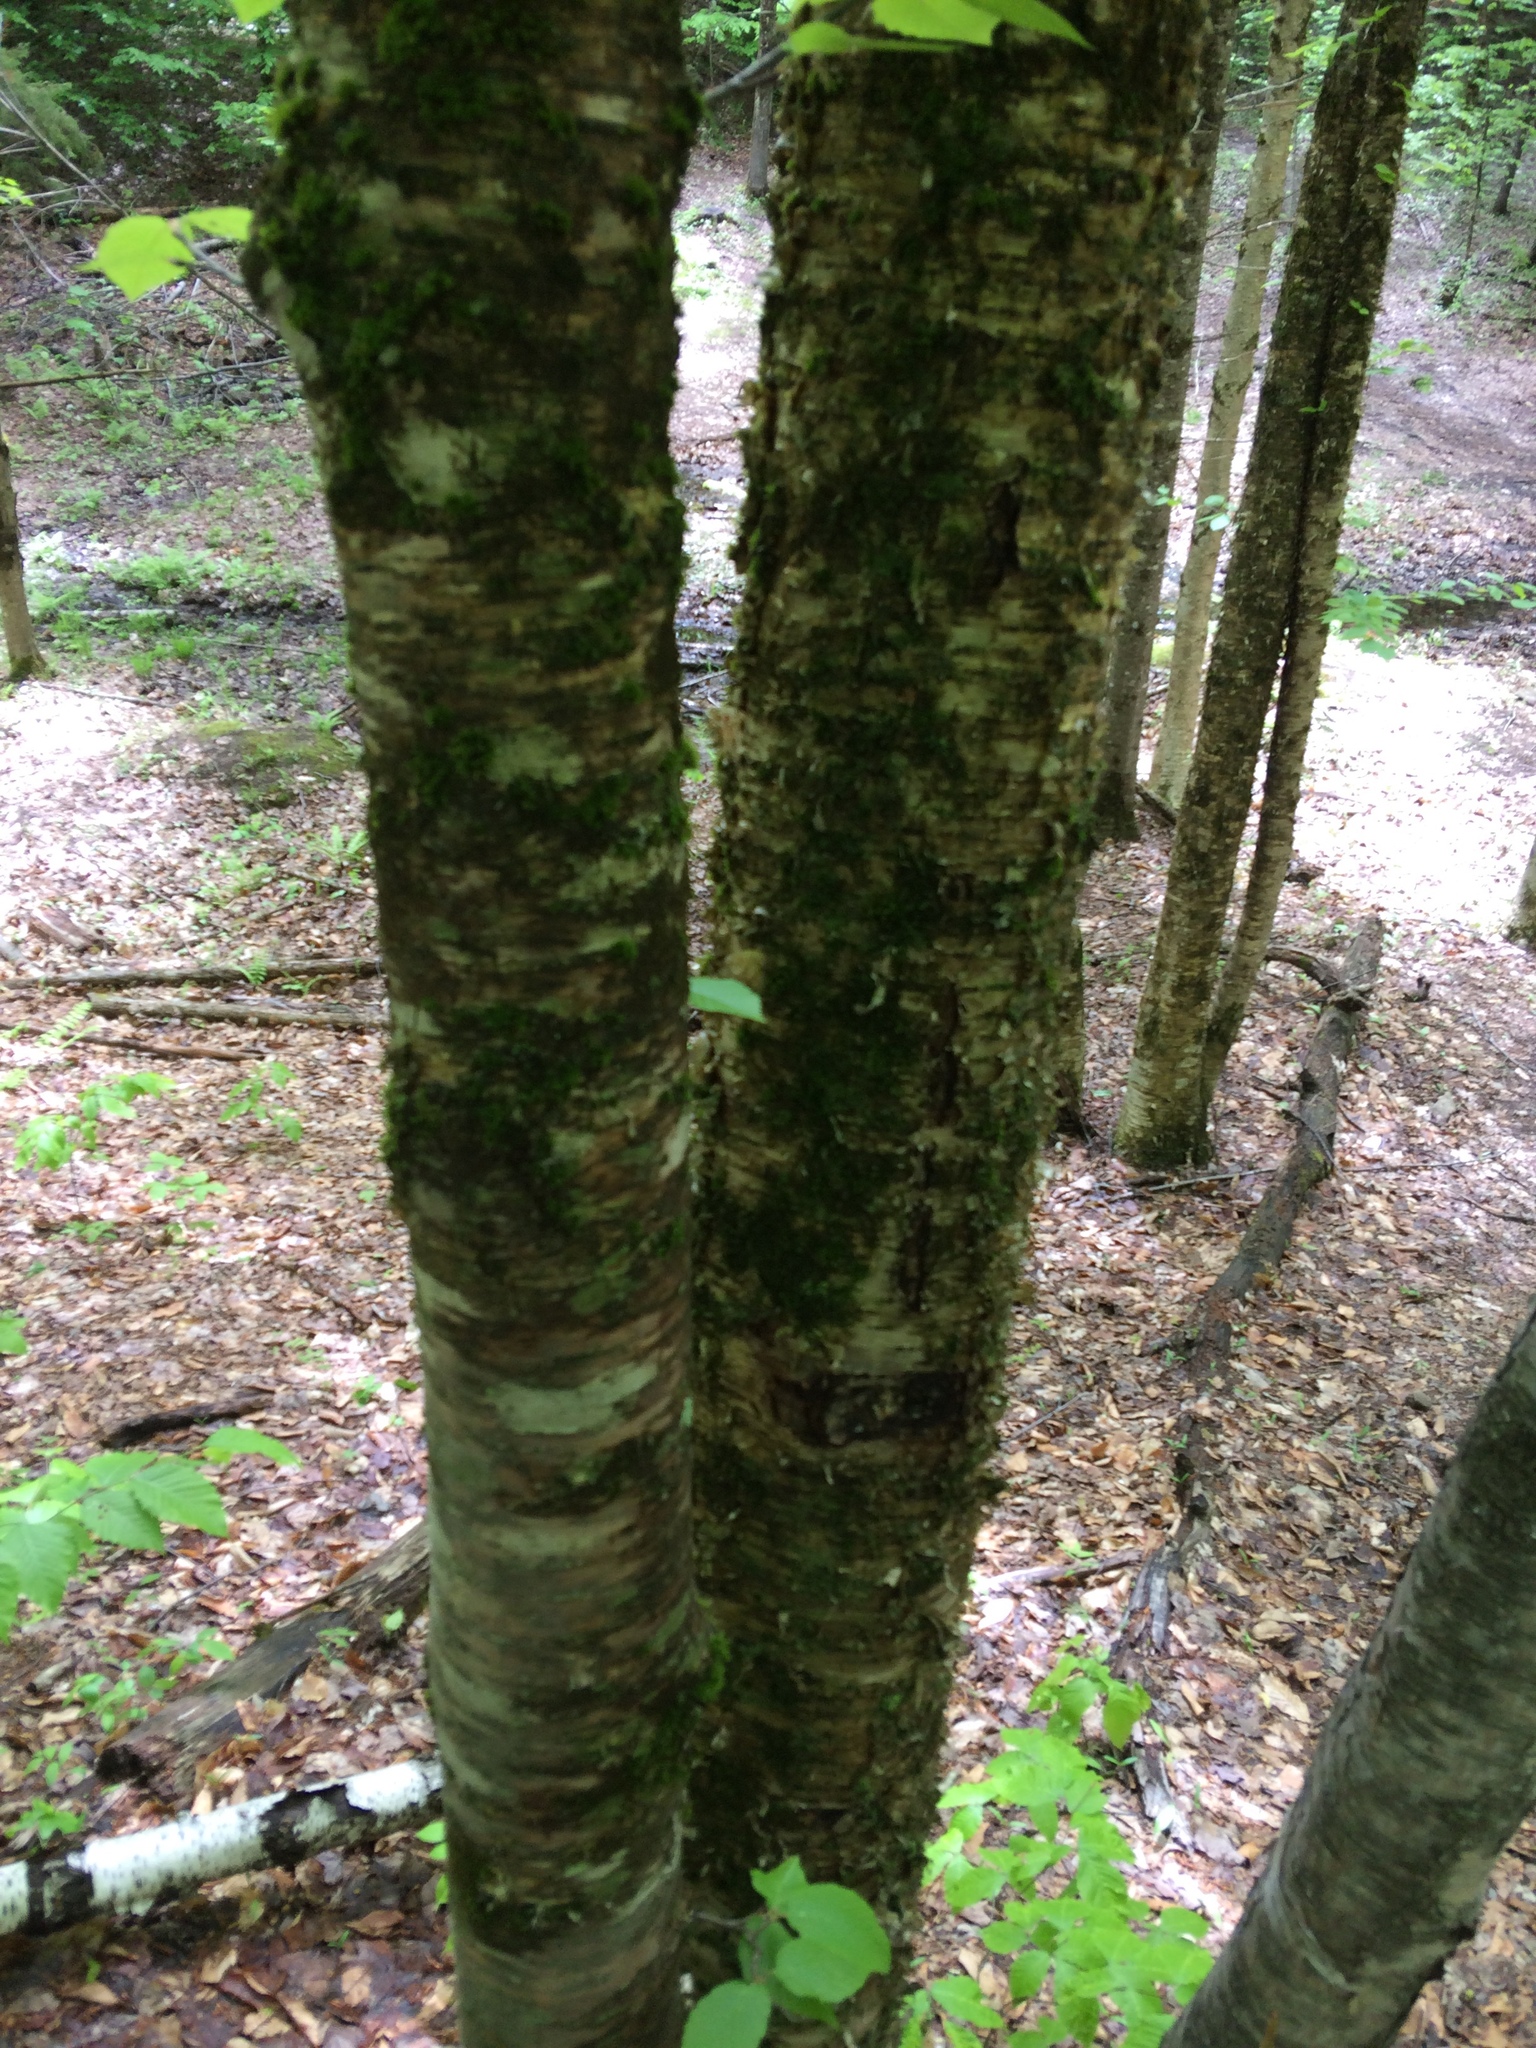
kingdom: Plantae
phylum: Tracheophyta
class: Magnoliopsida
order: Fagales
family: Betulaceae
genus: Betula
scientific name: Betula alleghaniensis
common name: Yellow birch
